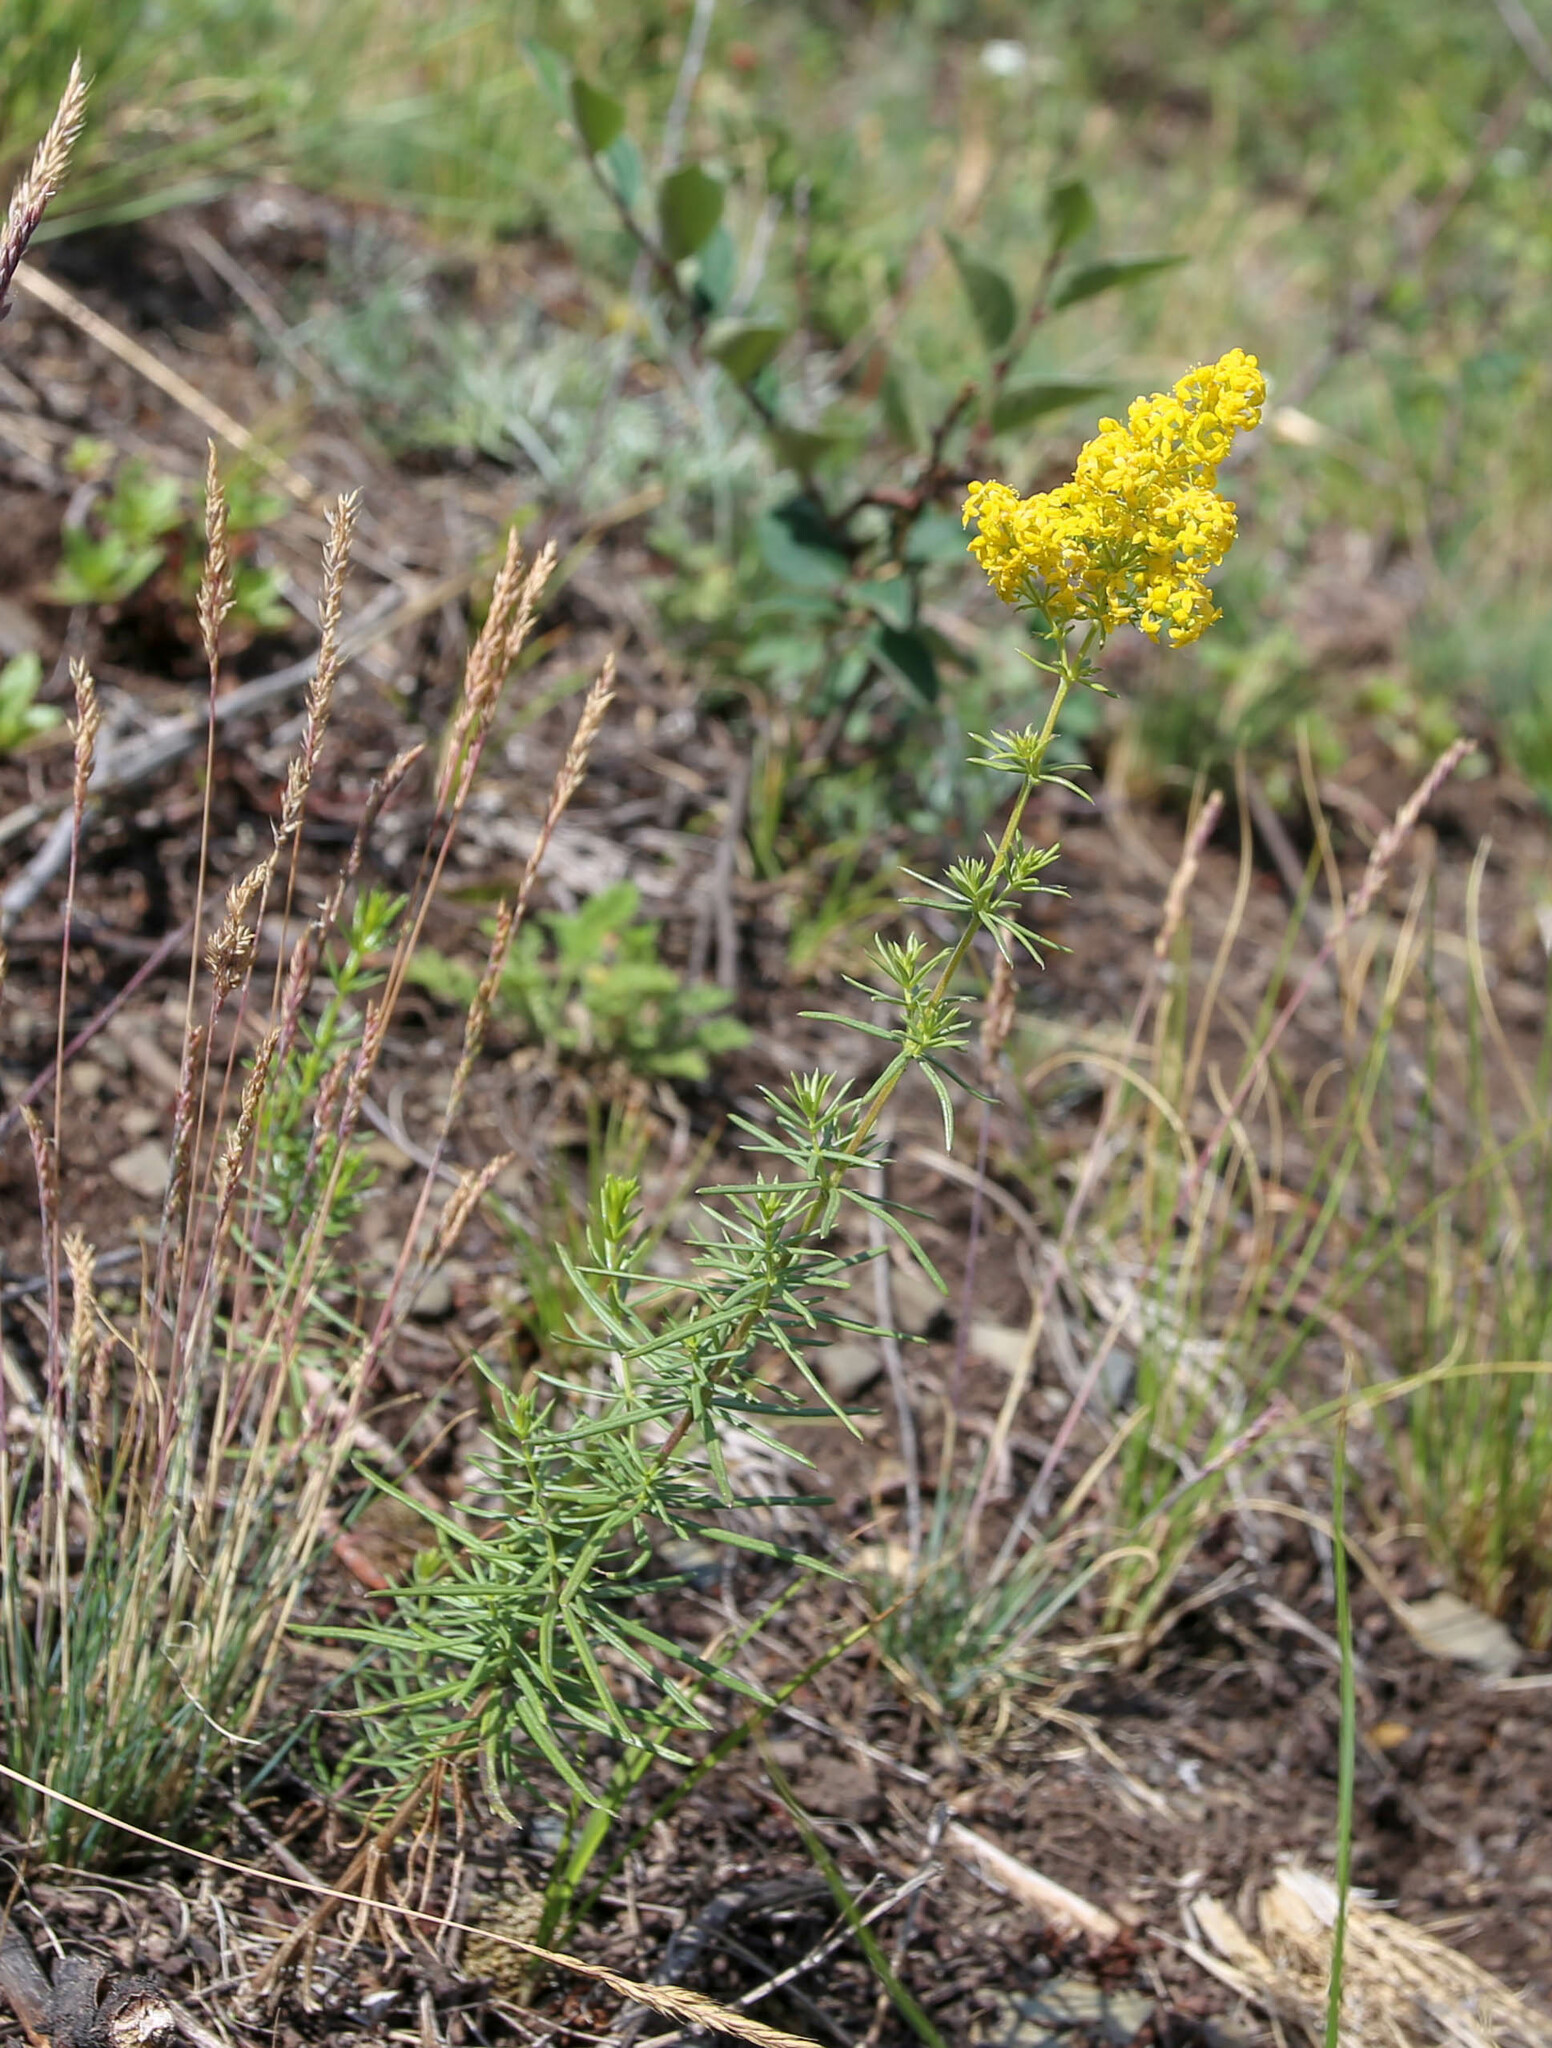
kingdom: Plantae
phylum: Tracheophyta
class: Magnoliopsida
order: Gentianales
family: Rubiaceae
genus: Galium
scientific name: Galium verum
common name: Lady's bedstraw
